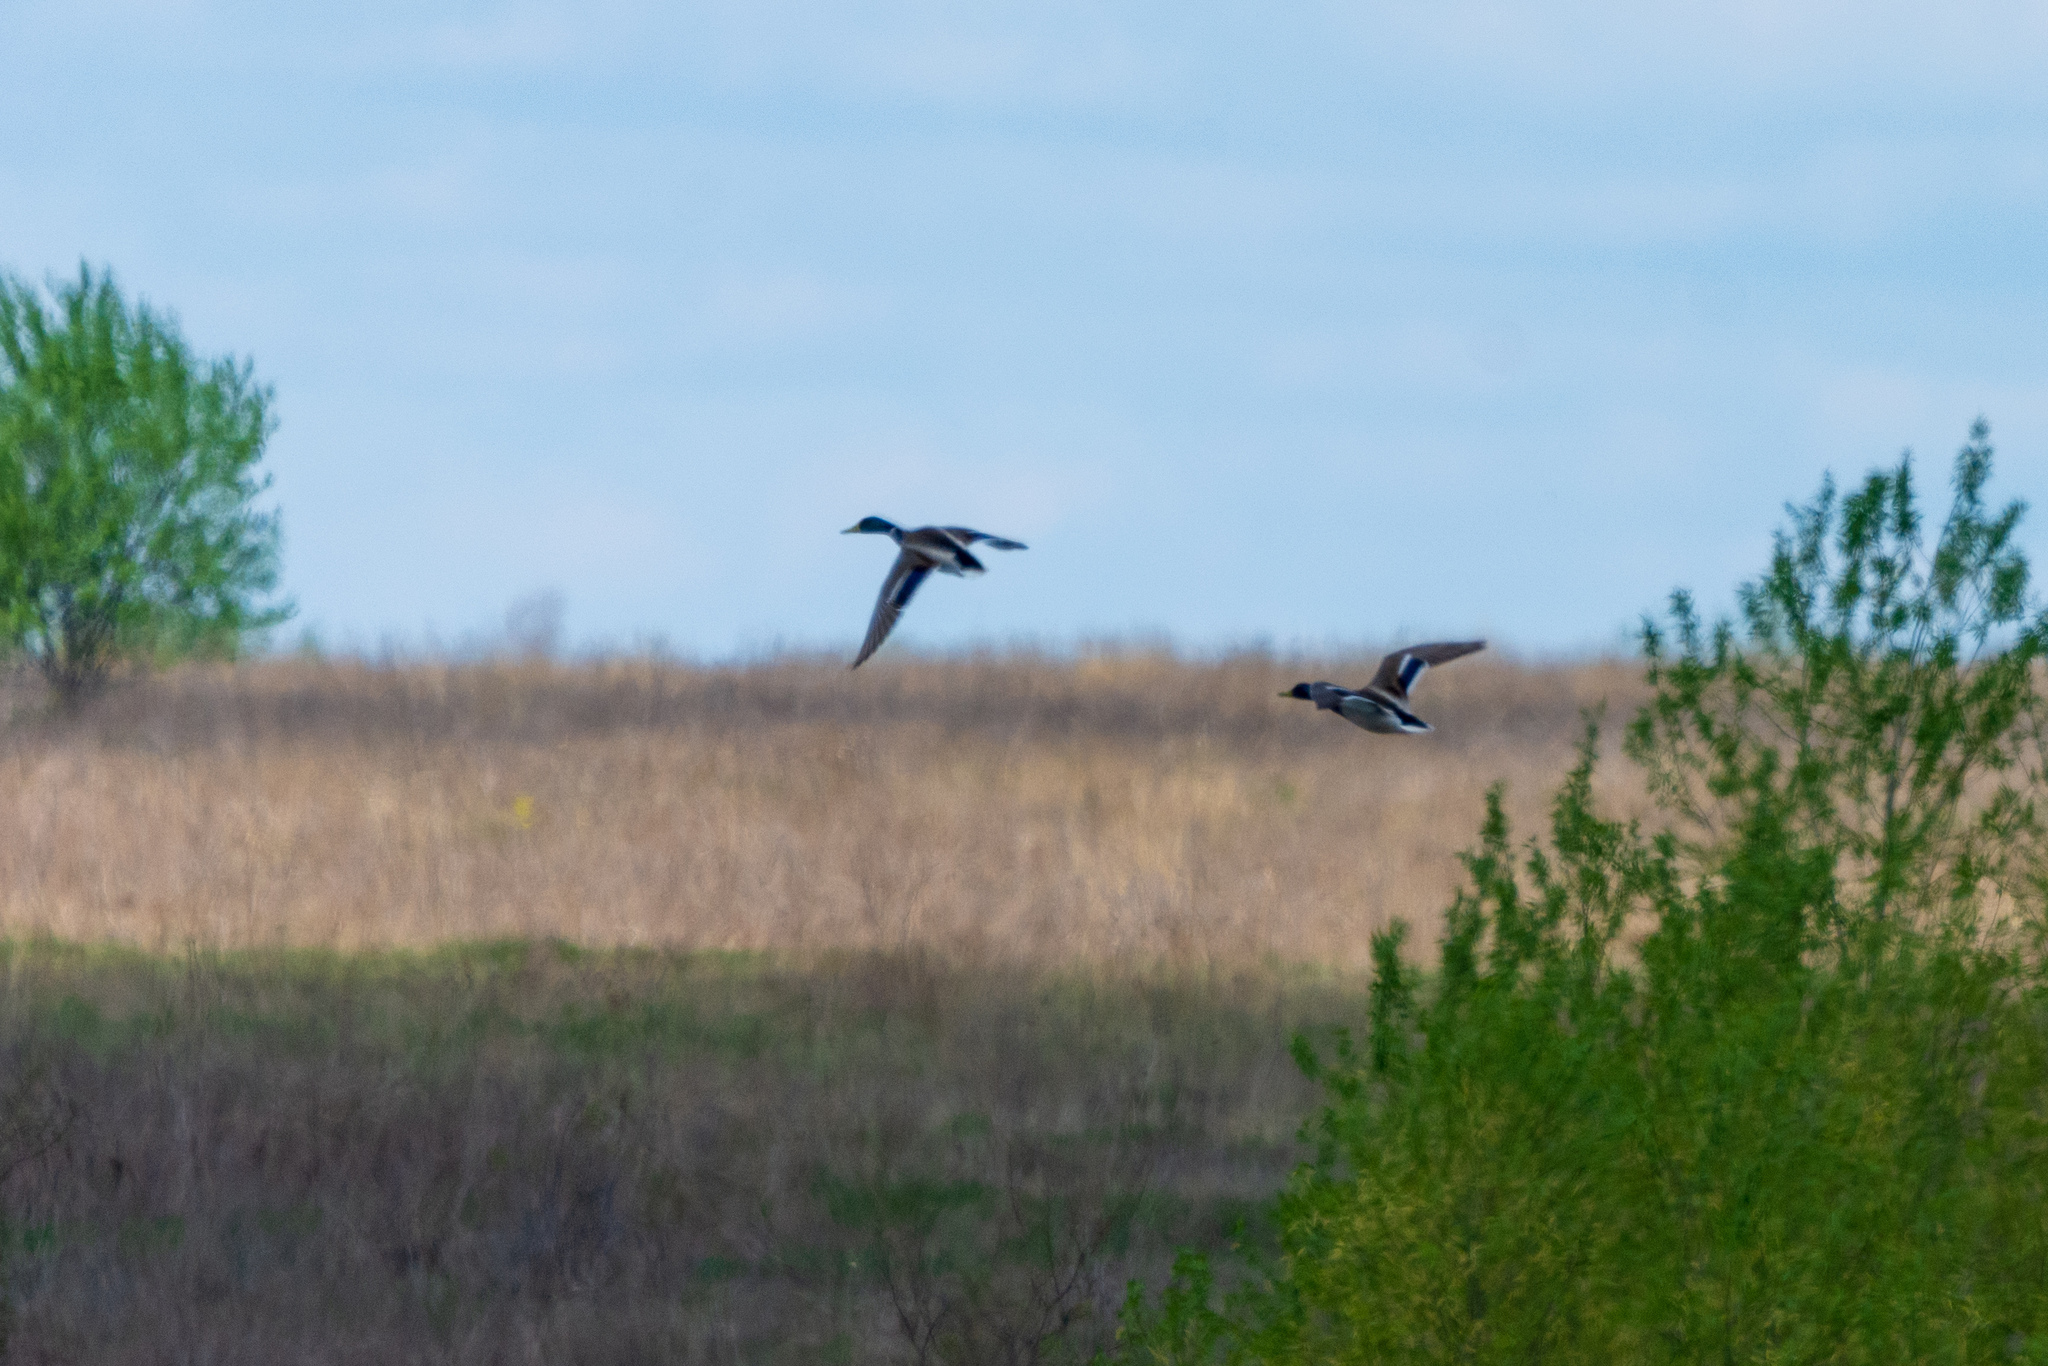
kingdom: Animalia
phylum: Chordata
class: Aves
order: Anseriformes
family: Anatidae
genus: Anas
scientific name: Anas platyrhynchos
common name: Mallard
